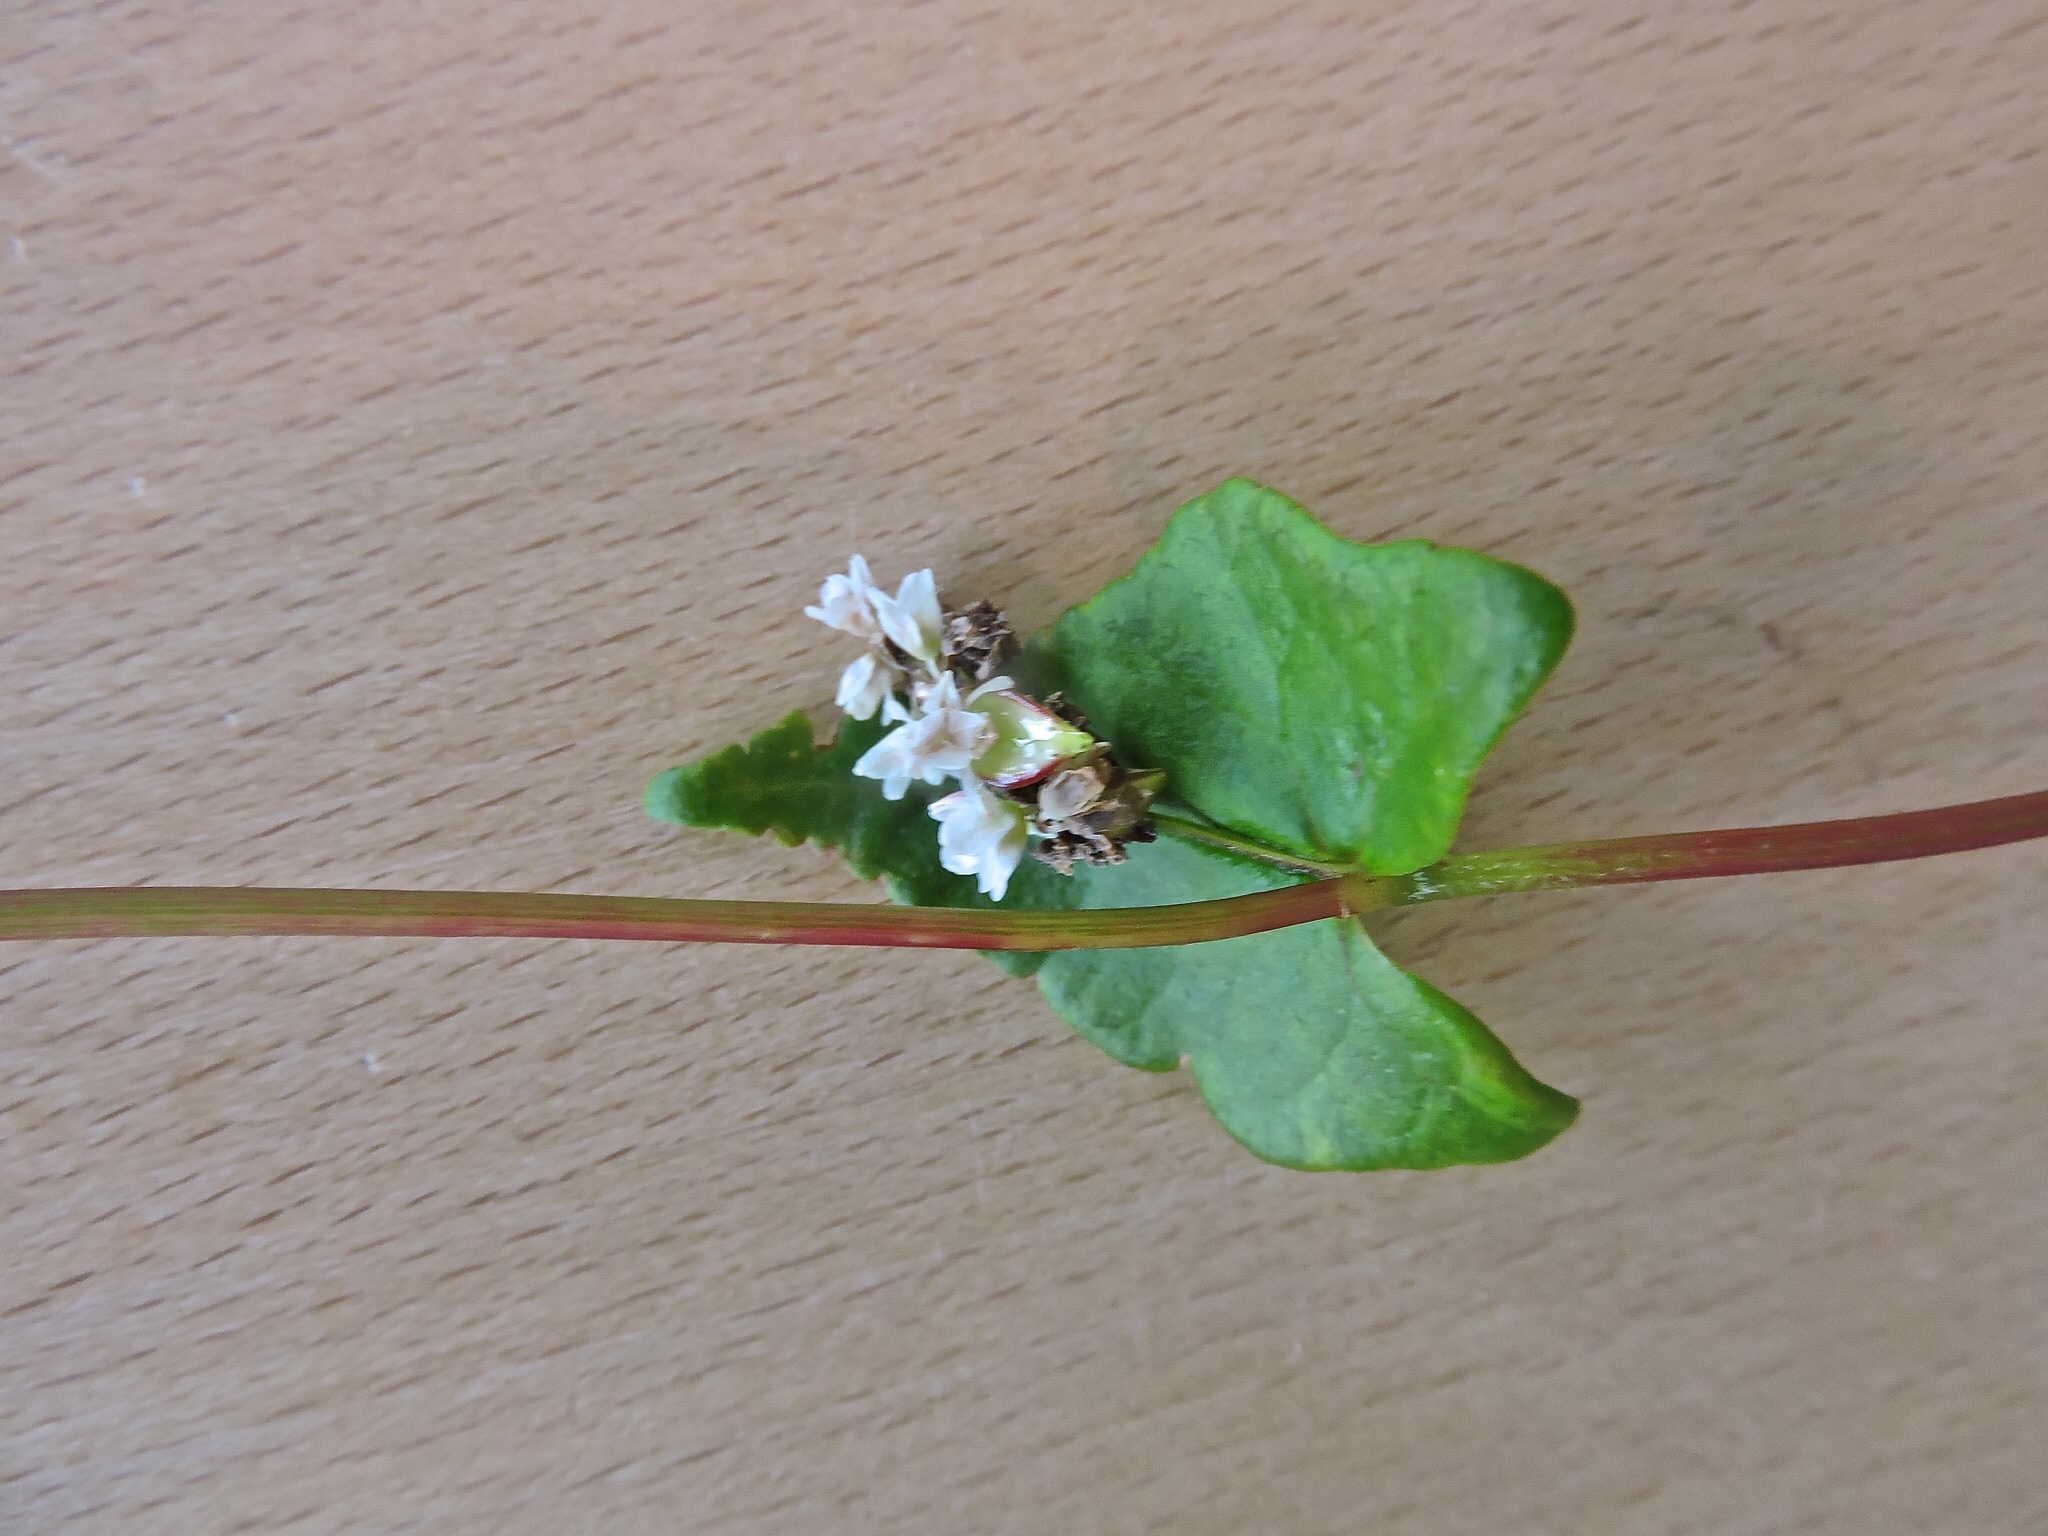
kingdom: Plantae
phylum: Tracheophyta
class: Magnoliopsida
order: Caryophyllales
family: Polygonaceae
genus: Fagopyrum
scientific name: Fagopyrum esculentum
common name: Buckwheat
